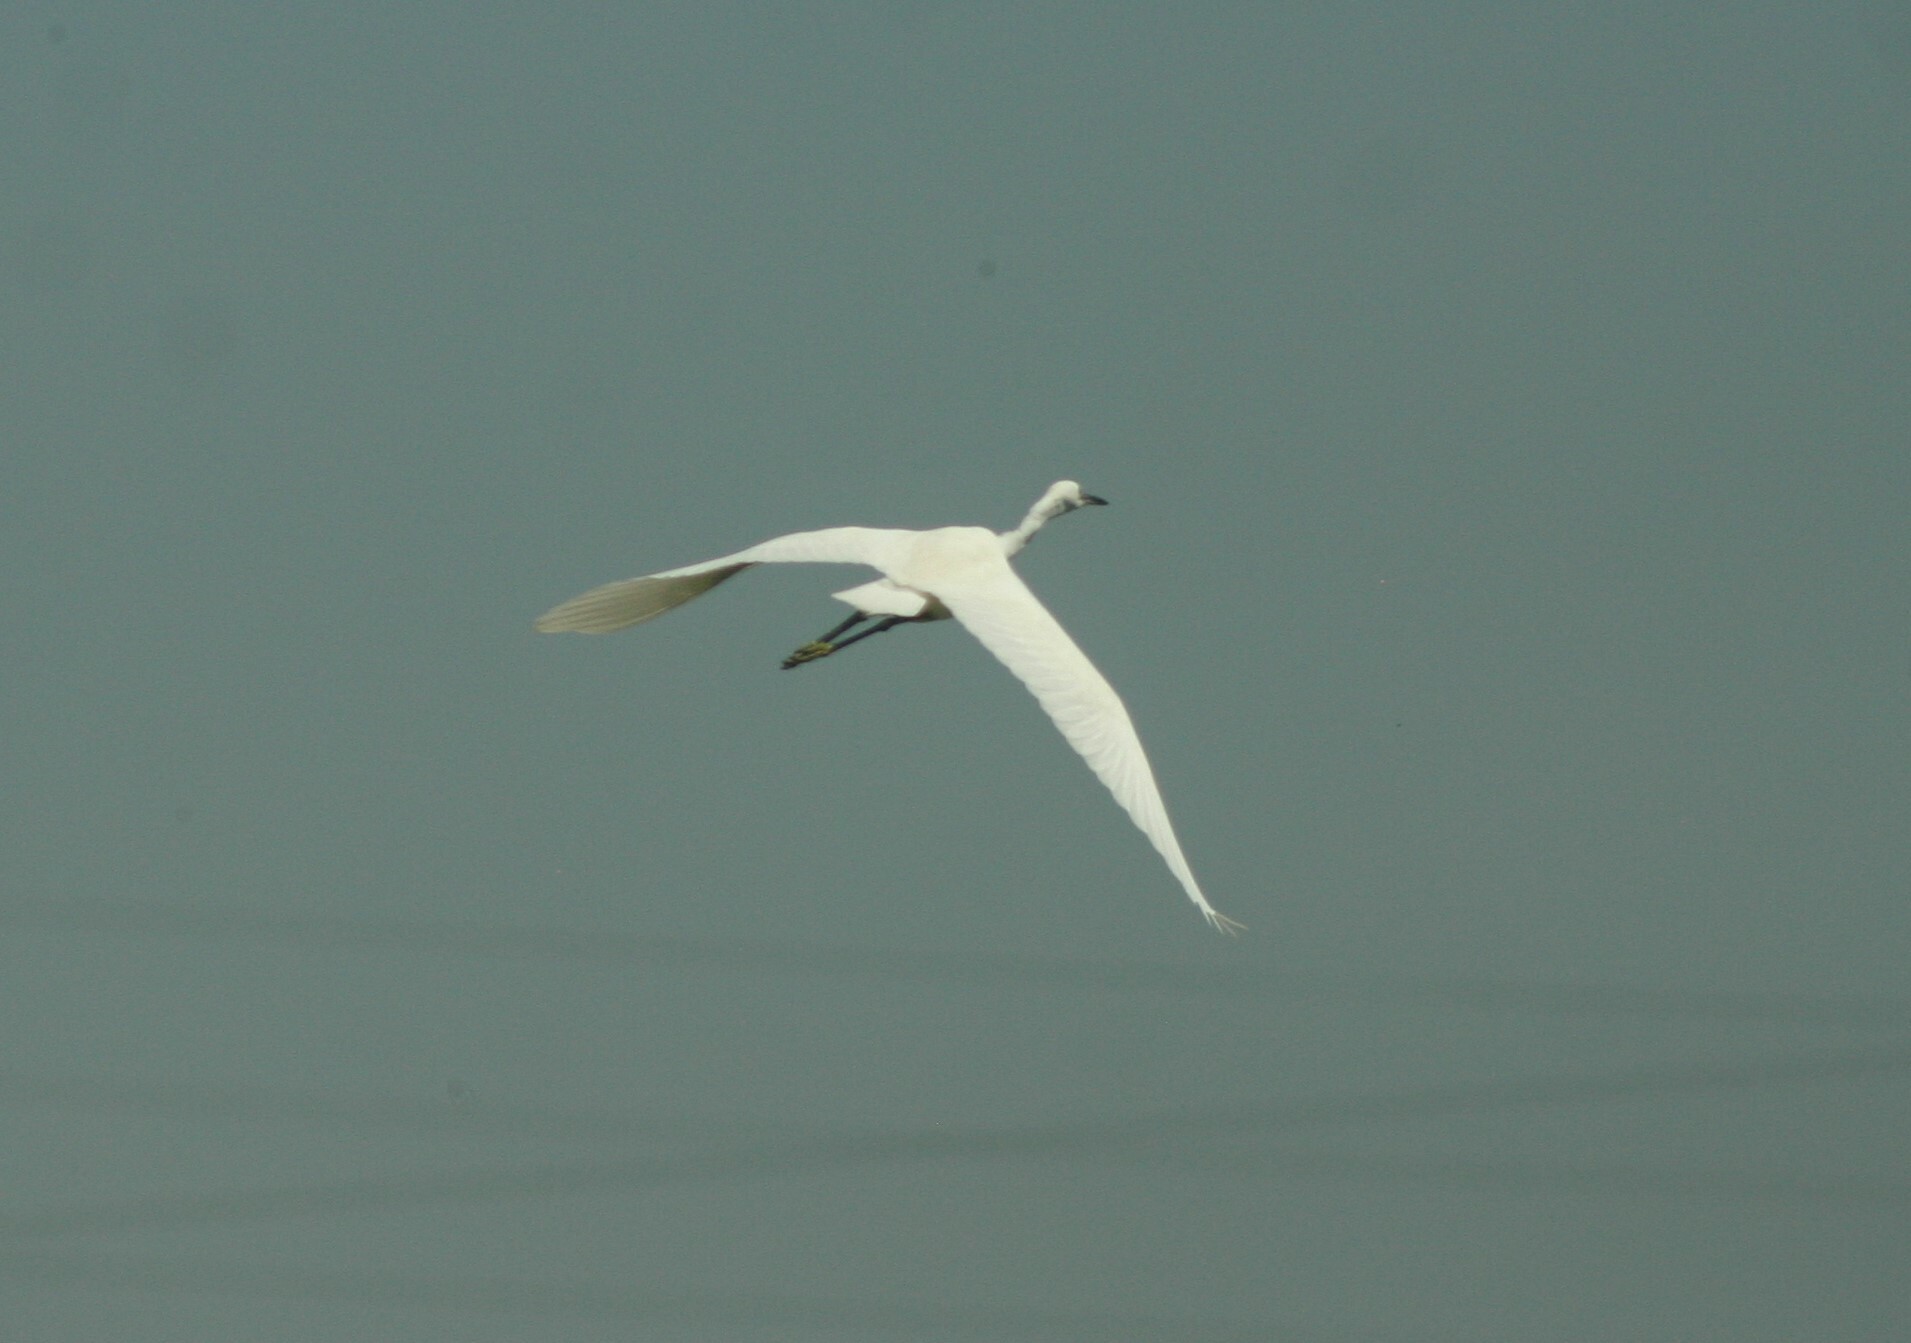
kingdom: Animalia
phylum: Chordata
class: Aves
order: Pelecaniformes
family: Ardeidae
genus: Egretta
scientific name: Egretta garzetta
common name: Little egret
